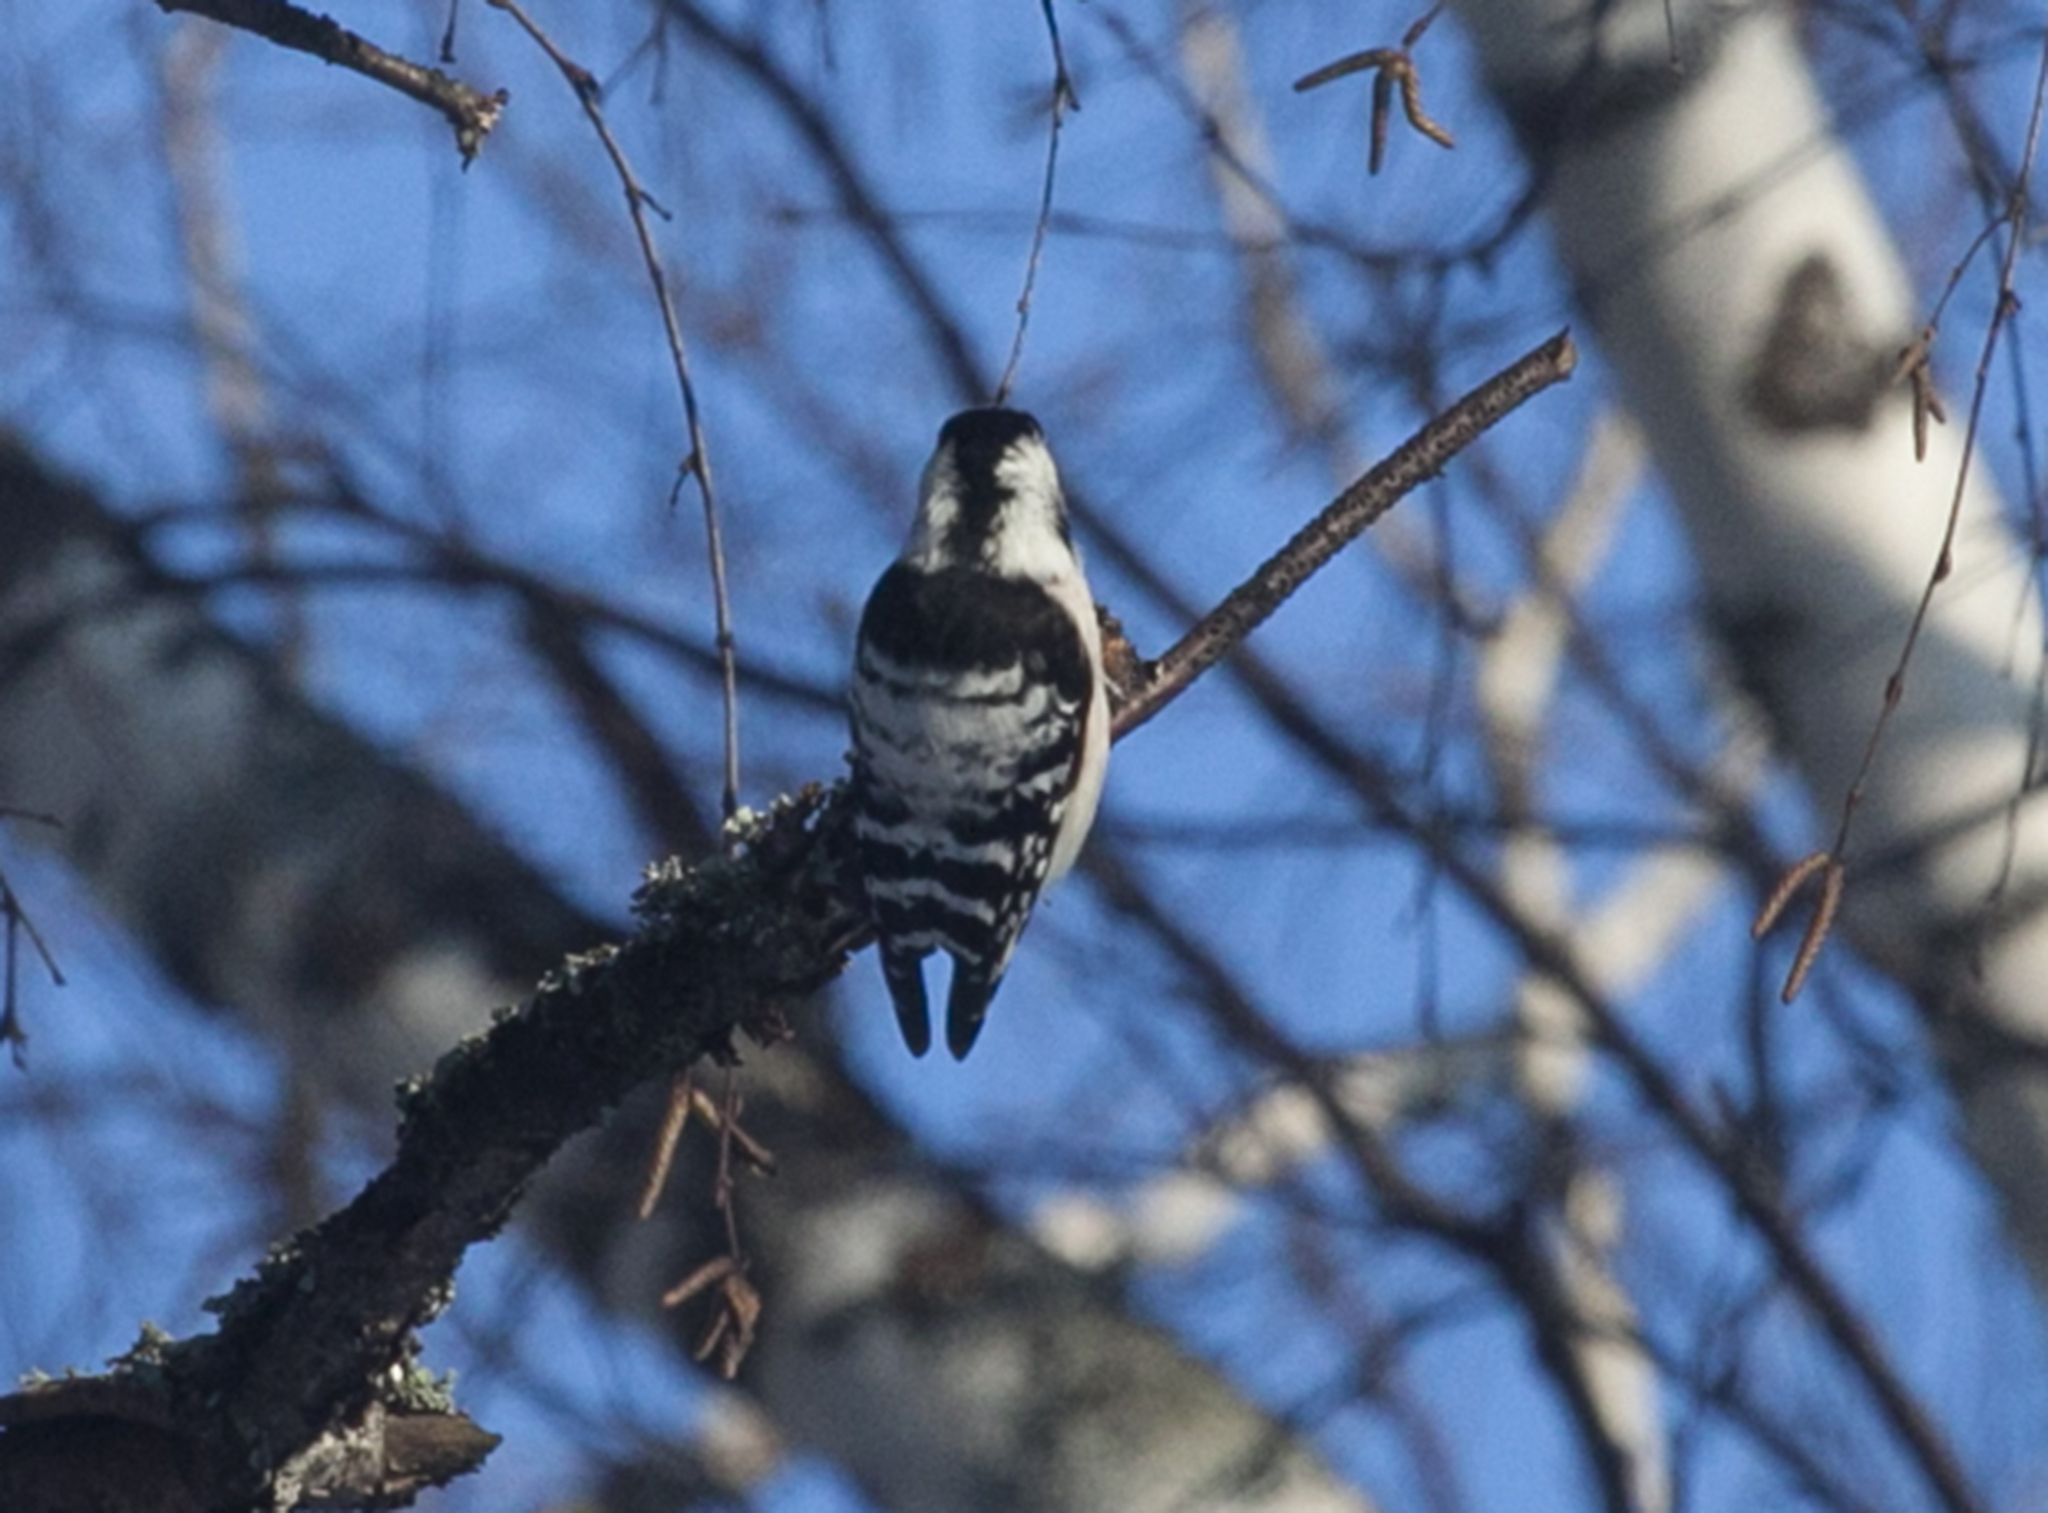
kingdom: Animalia
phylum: Chordata
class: Aves
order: Piciformes
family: Picidae
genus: Dryobates
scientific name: Dryobates minor
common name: Lesser spotted woodpecker
